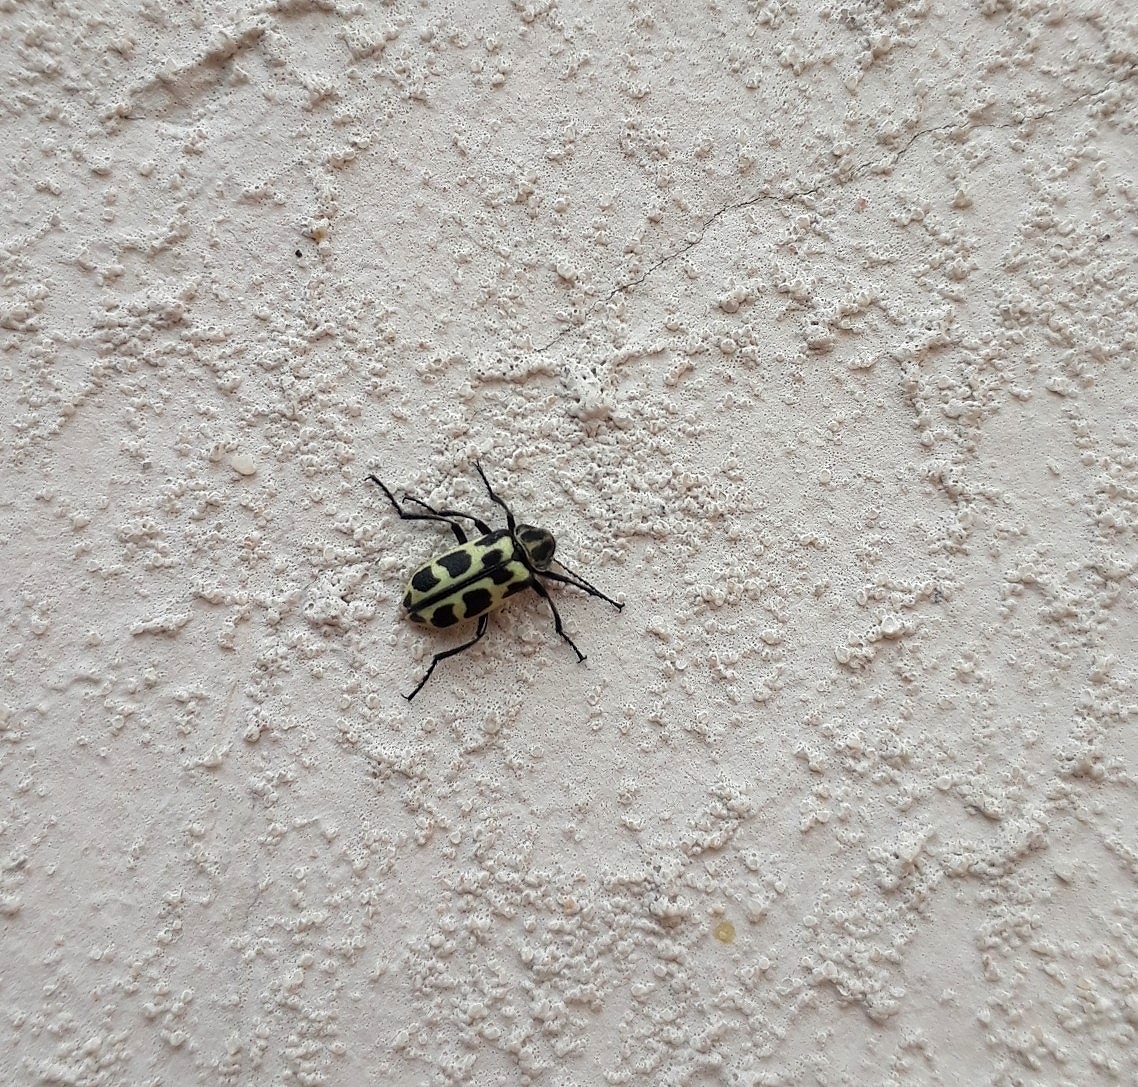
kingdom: Animalia
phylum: Arthropoda
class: Insecta
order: Coleoptera
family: Melyridae
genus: Astylus
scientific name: Astylus atromaculatus
